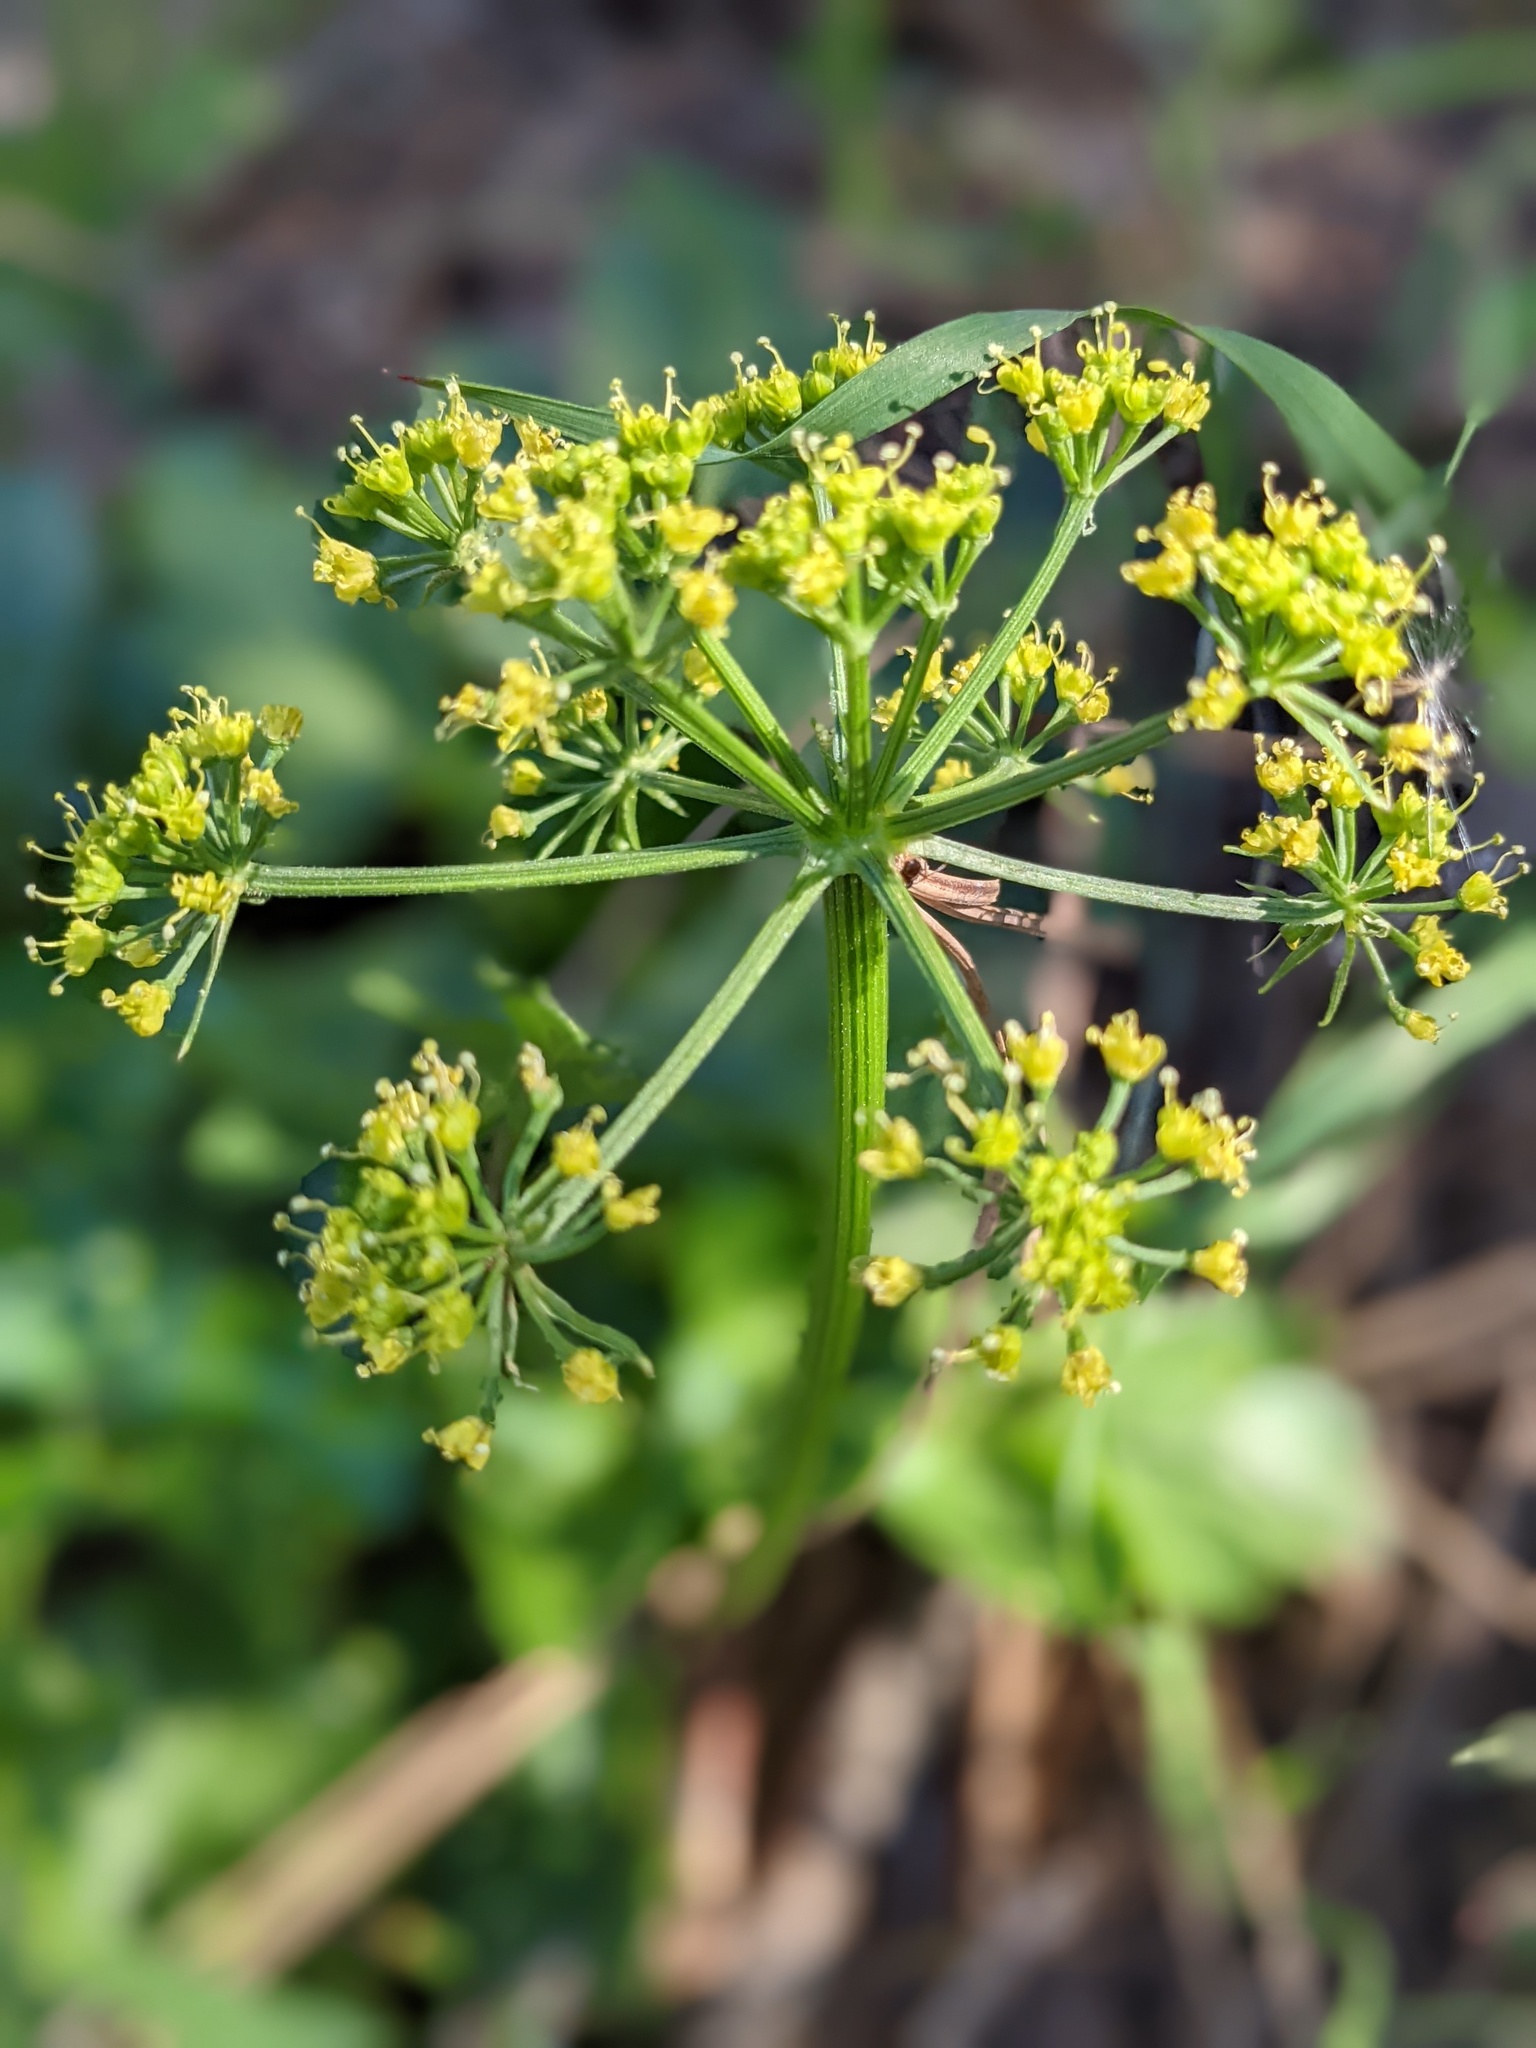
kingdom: Plantae
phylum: Tracheophyta
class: Magnoliopsida
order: Apiales
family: Apiaceae
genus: Tauschia
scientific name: Tauschia hartwegii
